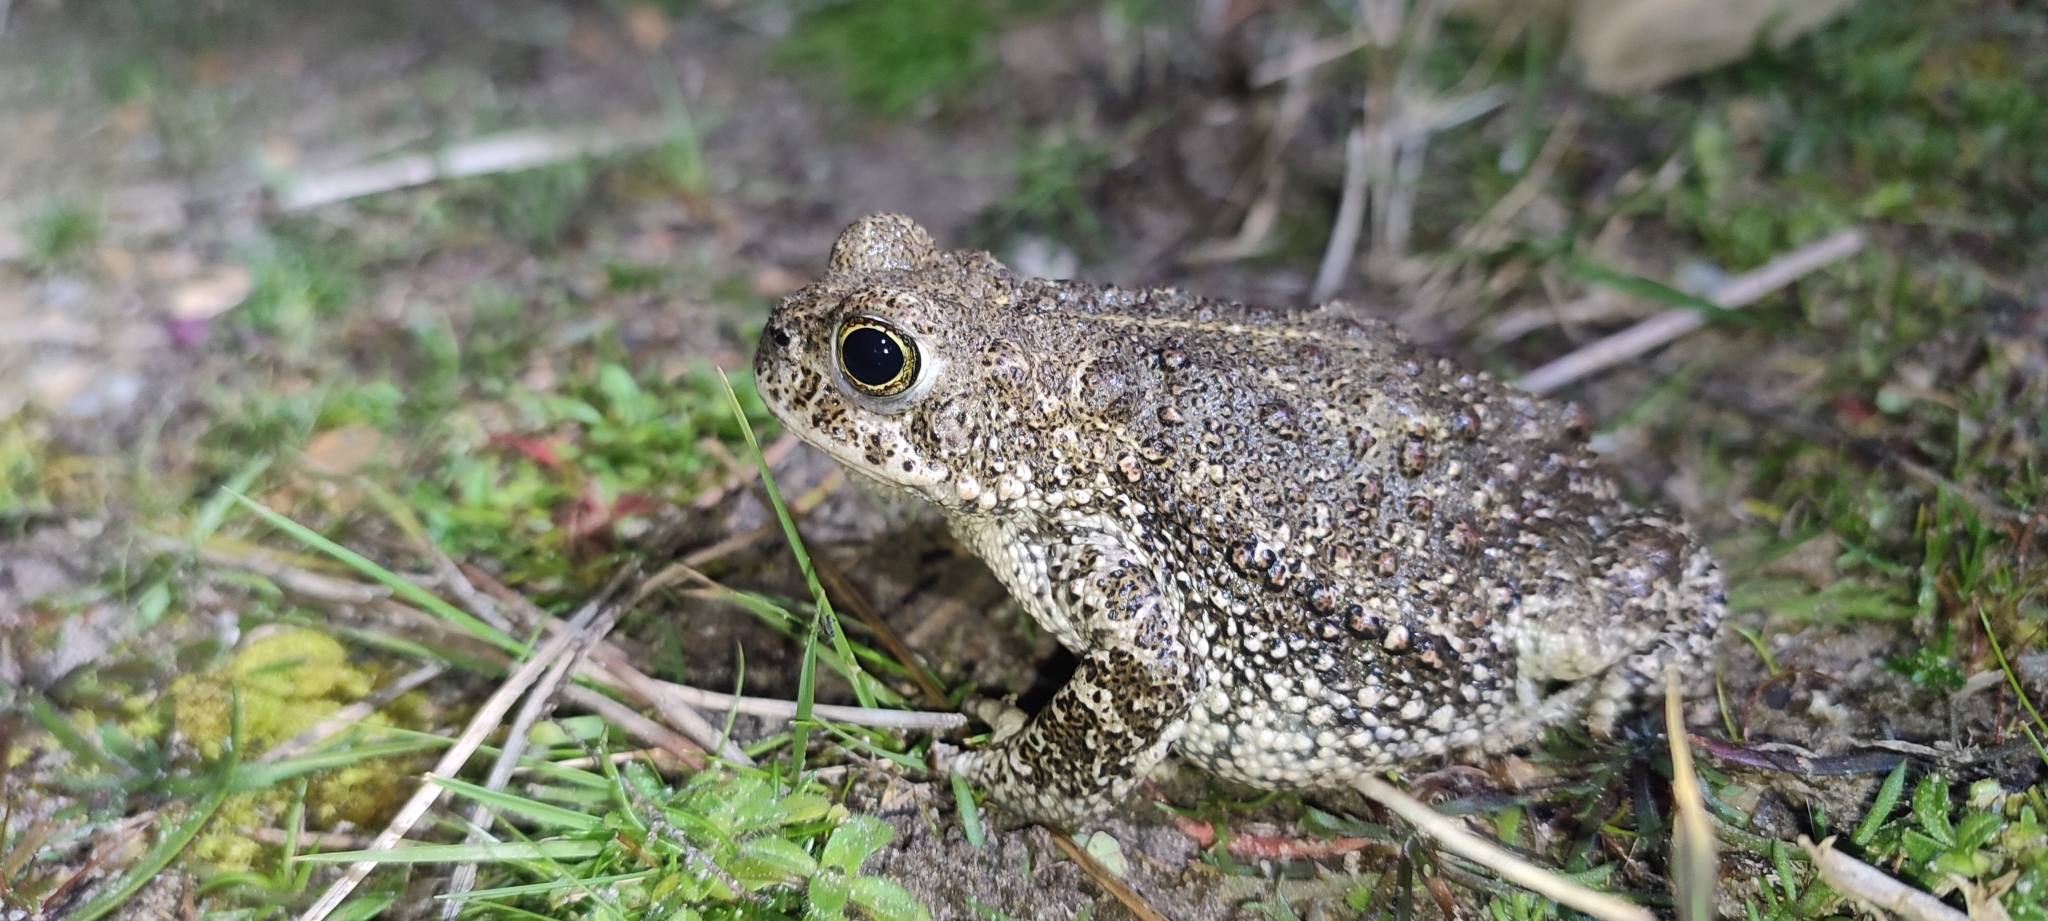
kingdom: Animalia
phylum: Chordata
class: Amphibia
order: Anura
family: Bufonidae
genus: Epidalea
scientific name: Epidalea calamita
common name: Natterjack toad
